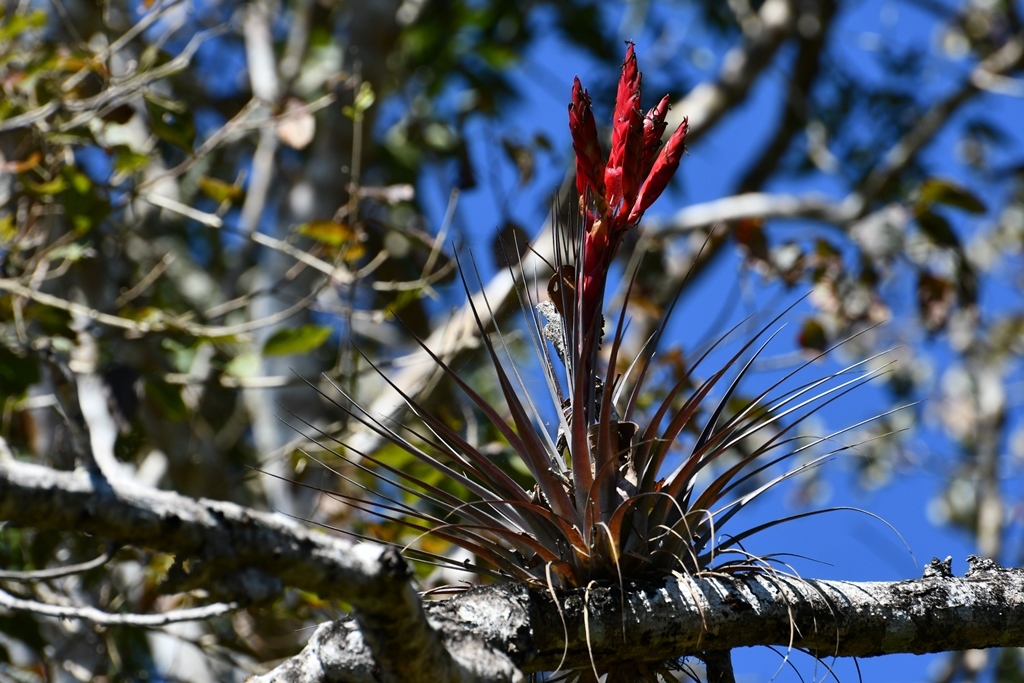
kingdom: Plantae
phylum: Tracheophyta
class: Liliopsida
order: Poales
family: Bromeliaceae
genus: Tillandsia
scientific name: Tillandsia zoquensis
